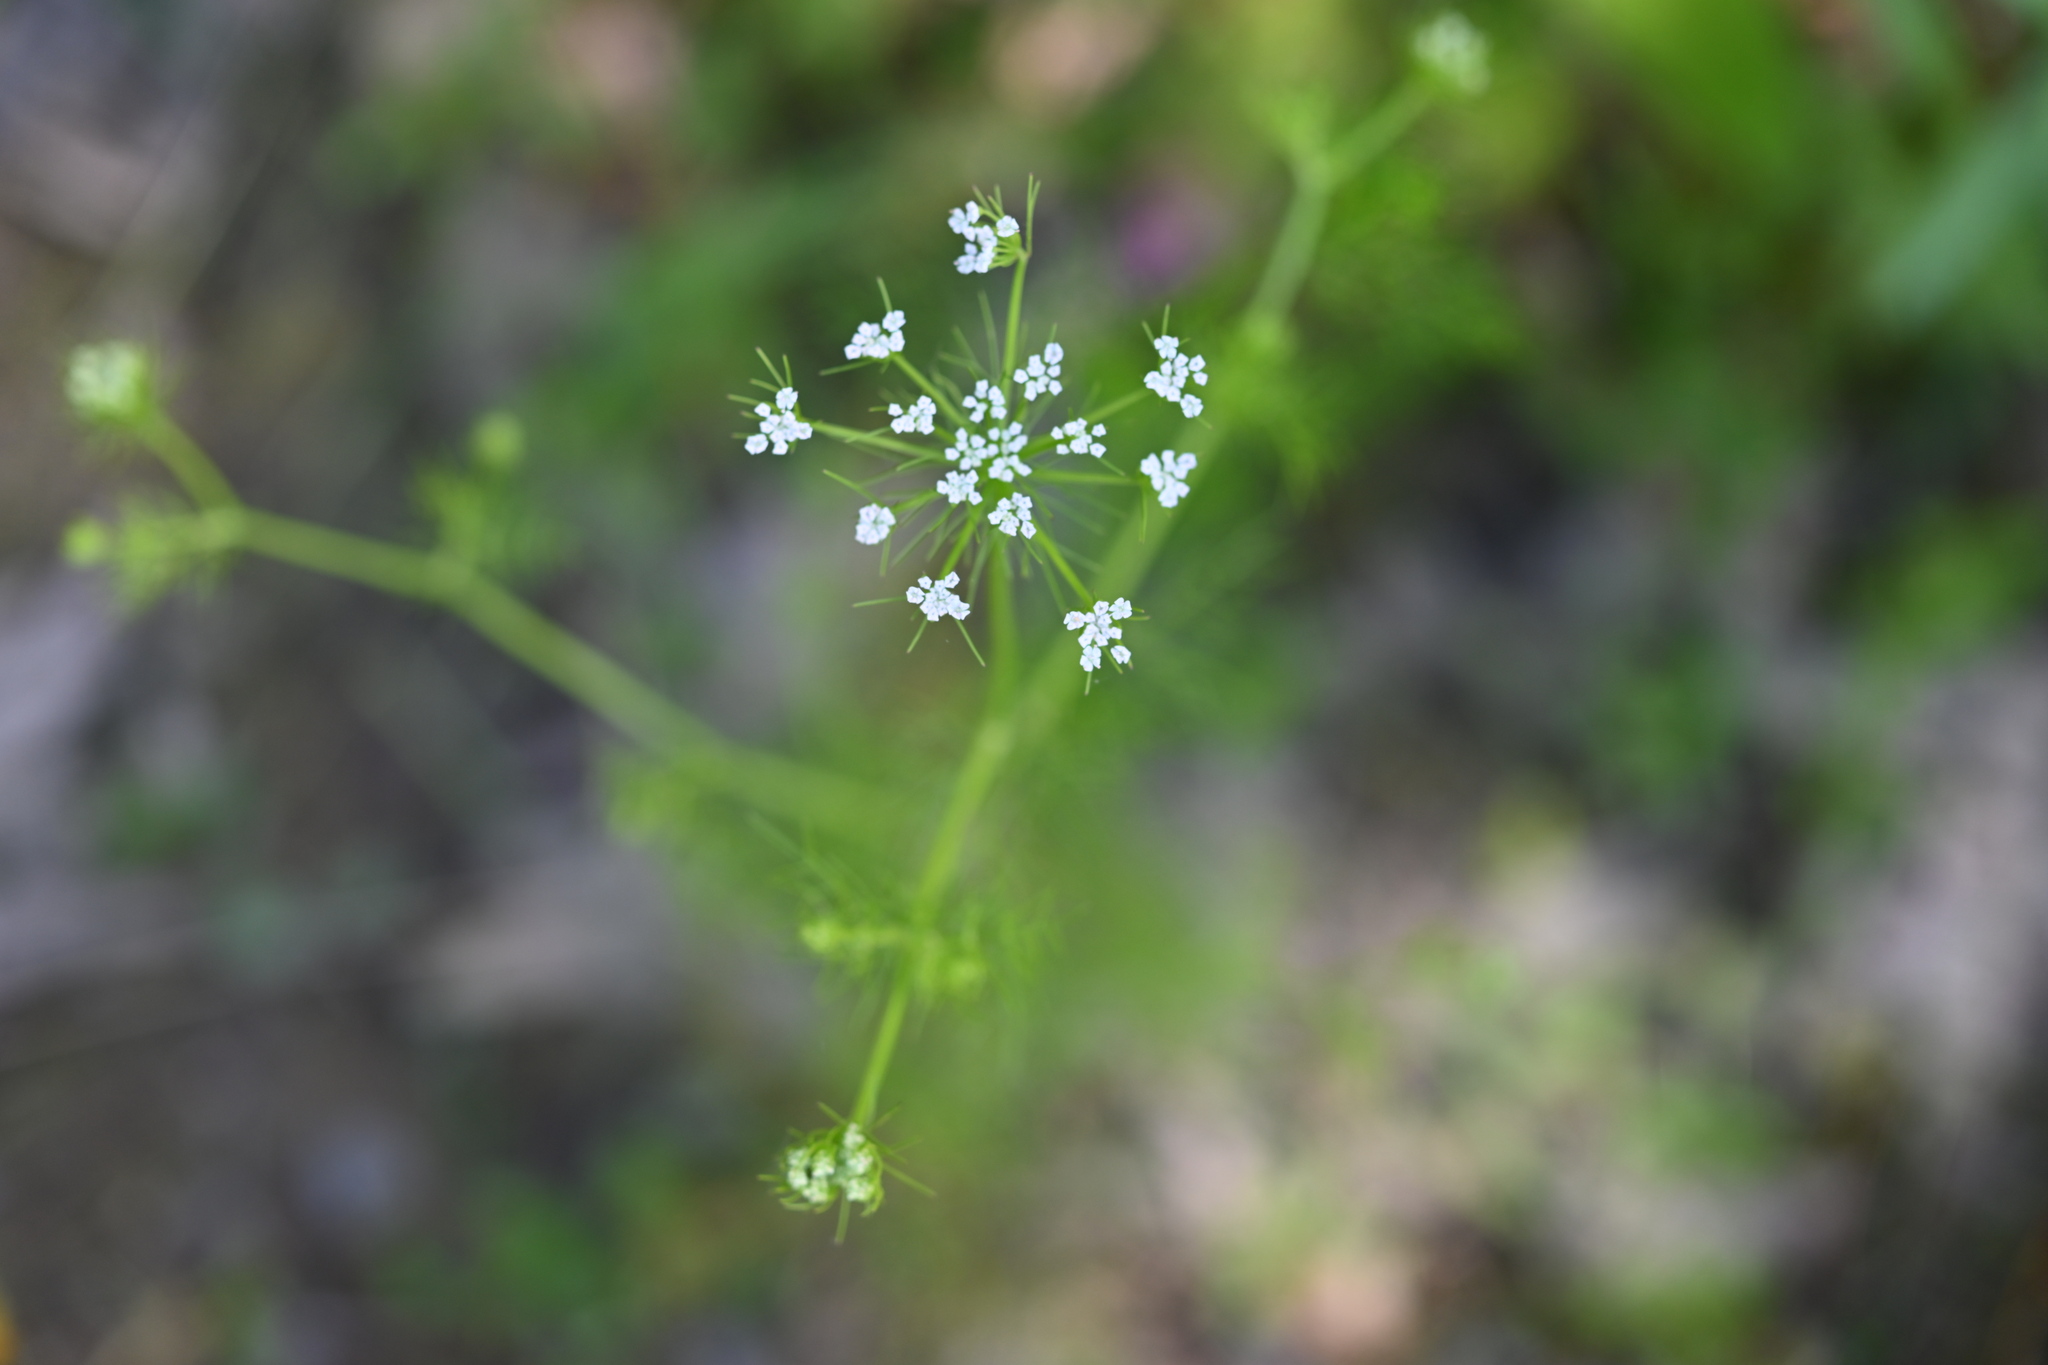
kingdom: Plantae
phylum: Tracheophyta
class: Magnoliopsida
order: Apiales
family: Apiaceae
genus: Ptilimnium
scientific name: Ptilimnium capillaceum
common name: Herbwilliam
